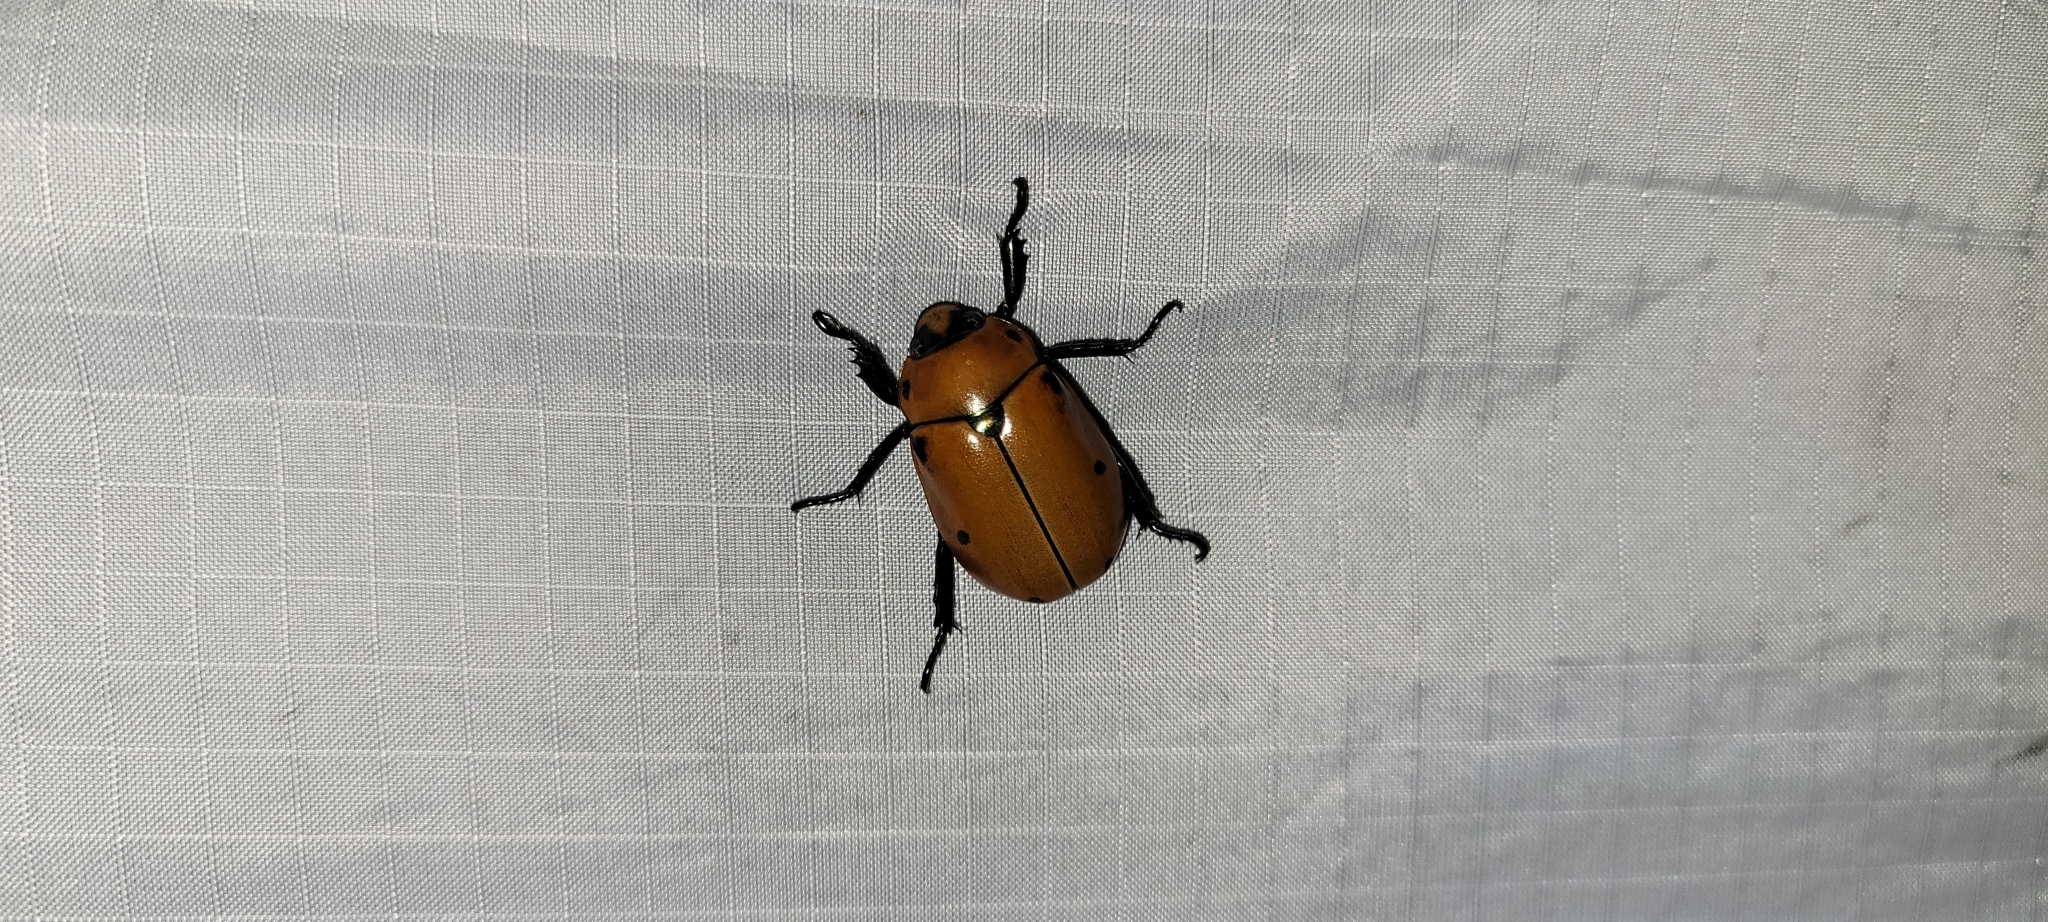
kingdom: Animalia
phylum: Arthropoda
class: Insecta
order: Coleoptera
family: Scarabaeidae
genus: Pelidnota
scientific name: Pelidnota punctata
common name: Grapevine beetle
